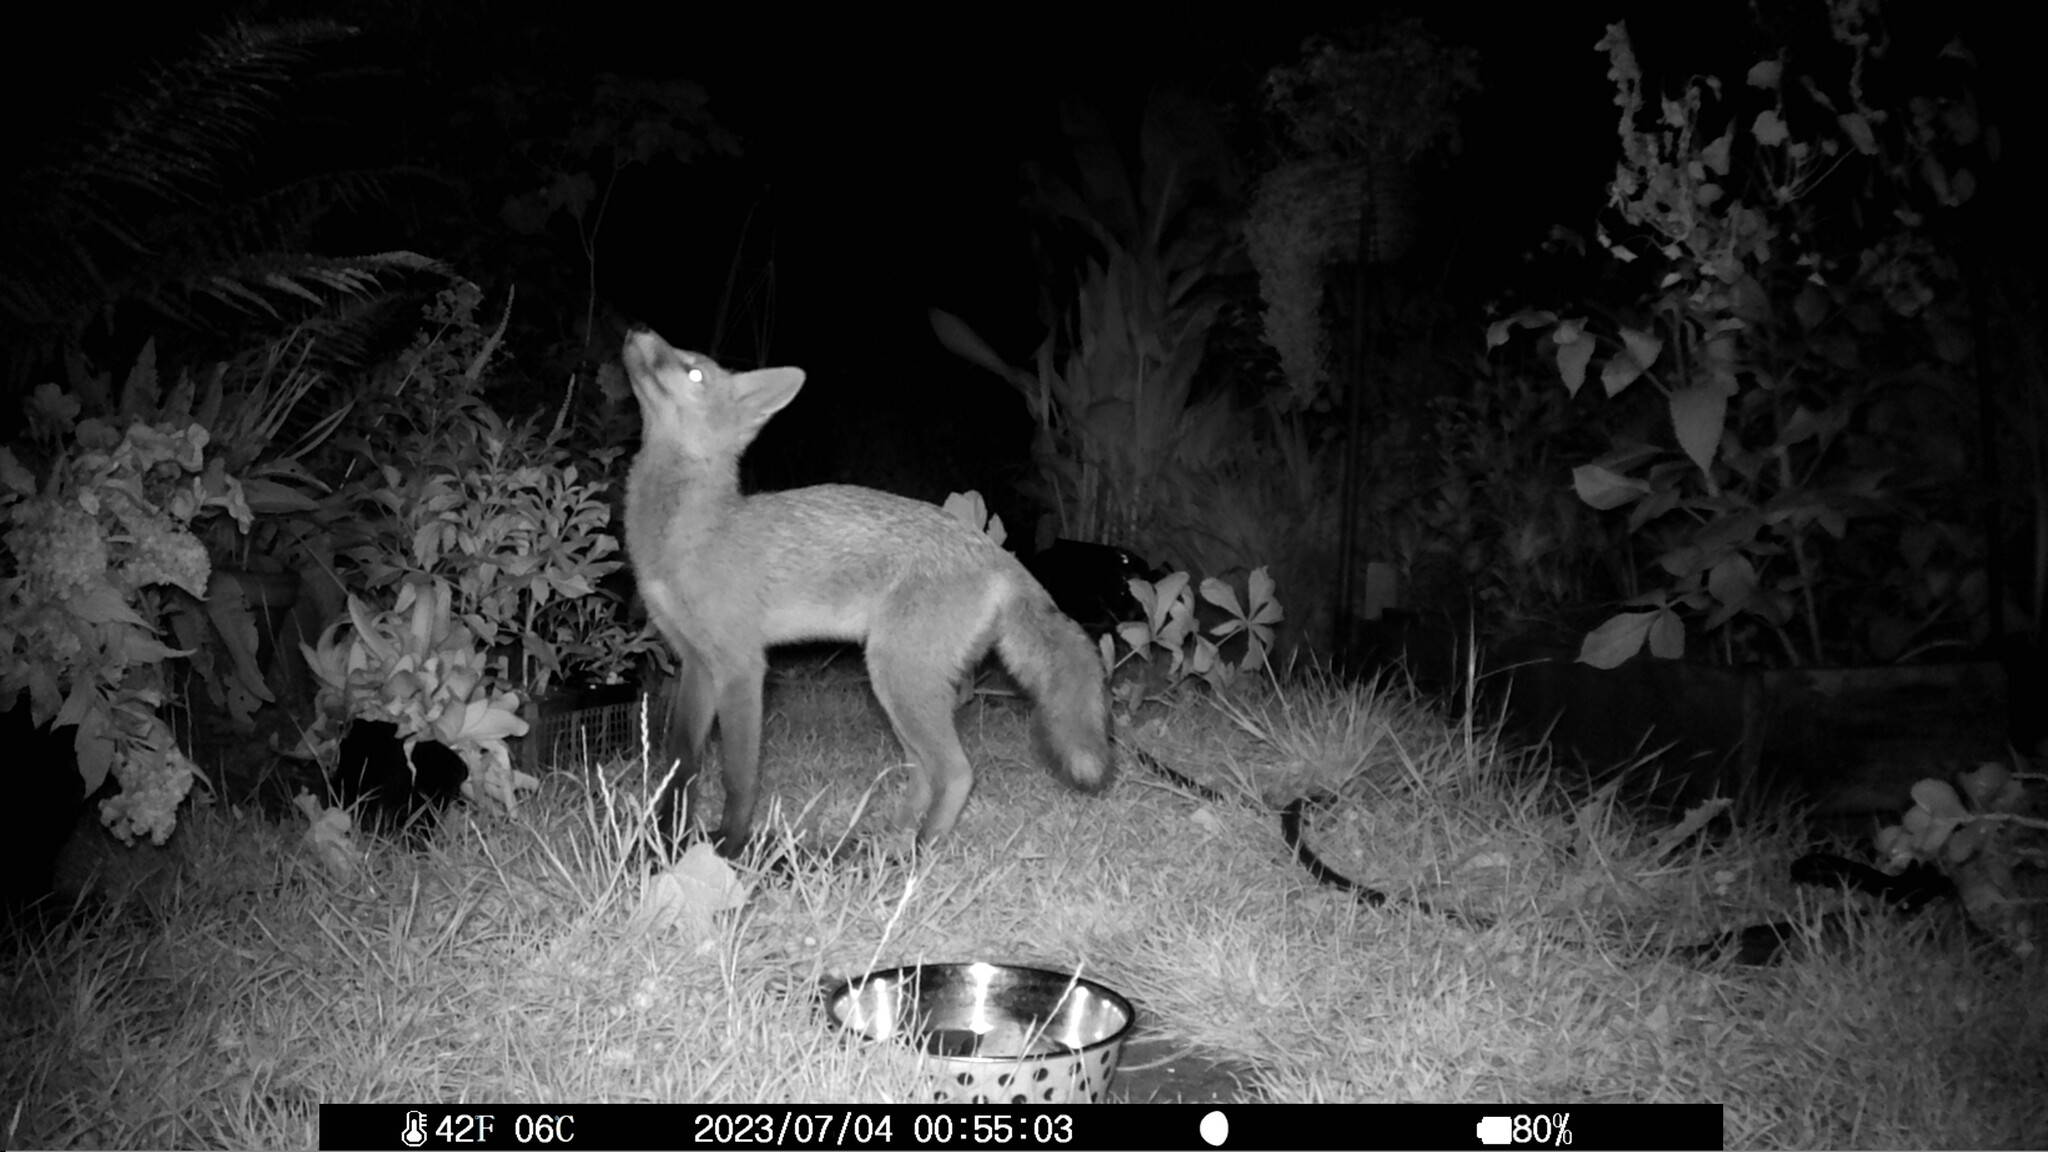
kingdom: Animalia
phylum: Chordata
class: Mammalia
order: Carnivora
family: Canidae
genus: Vulpes
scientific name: Vulpes vulpes
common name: Red fox
